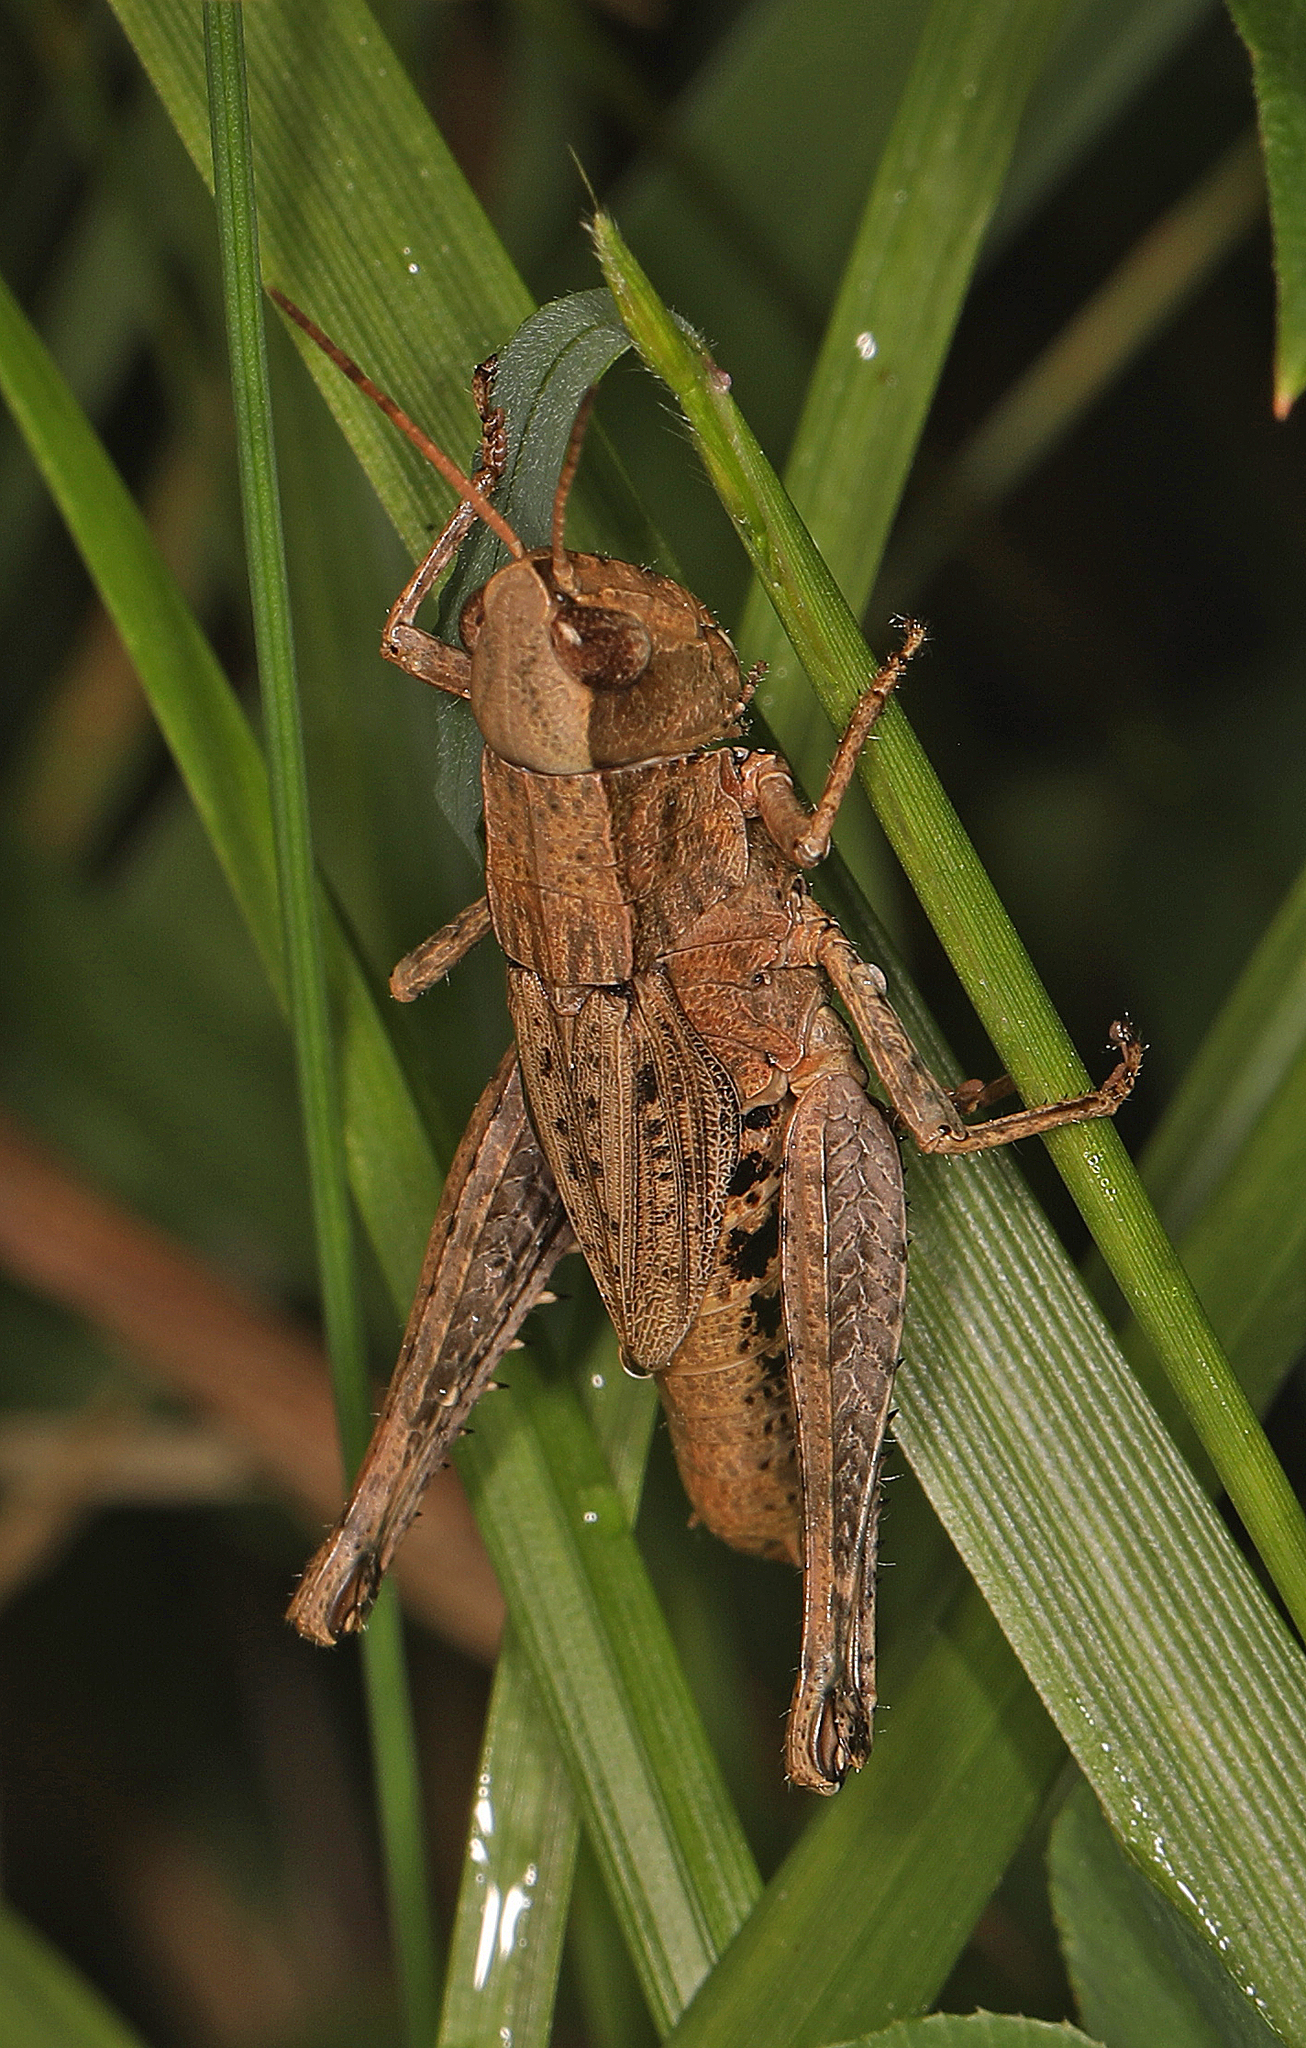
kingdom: Animalia
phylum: Arthropoda
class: Insecta
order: Orthoptera
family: Acrididae
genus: Melanoplus
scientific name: Melanoplus scudderi
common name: Scudder's short-winged locust
